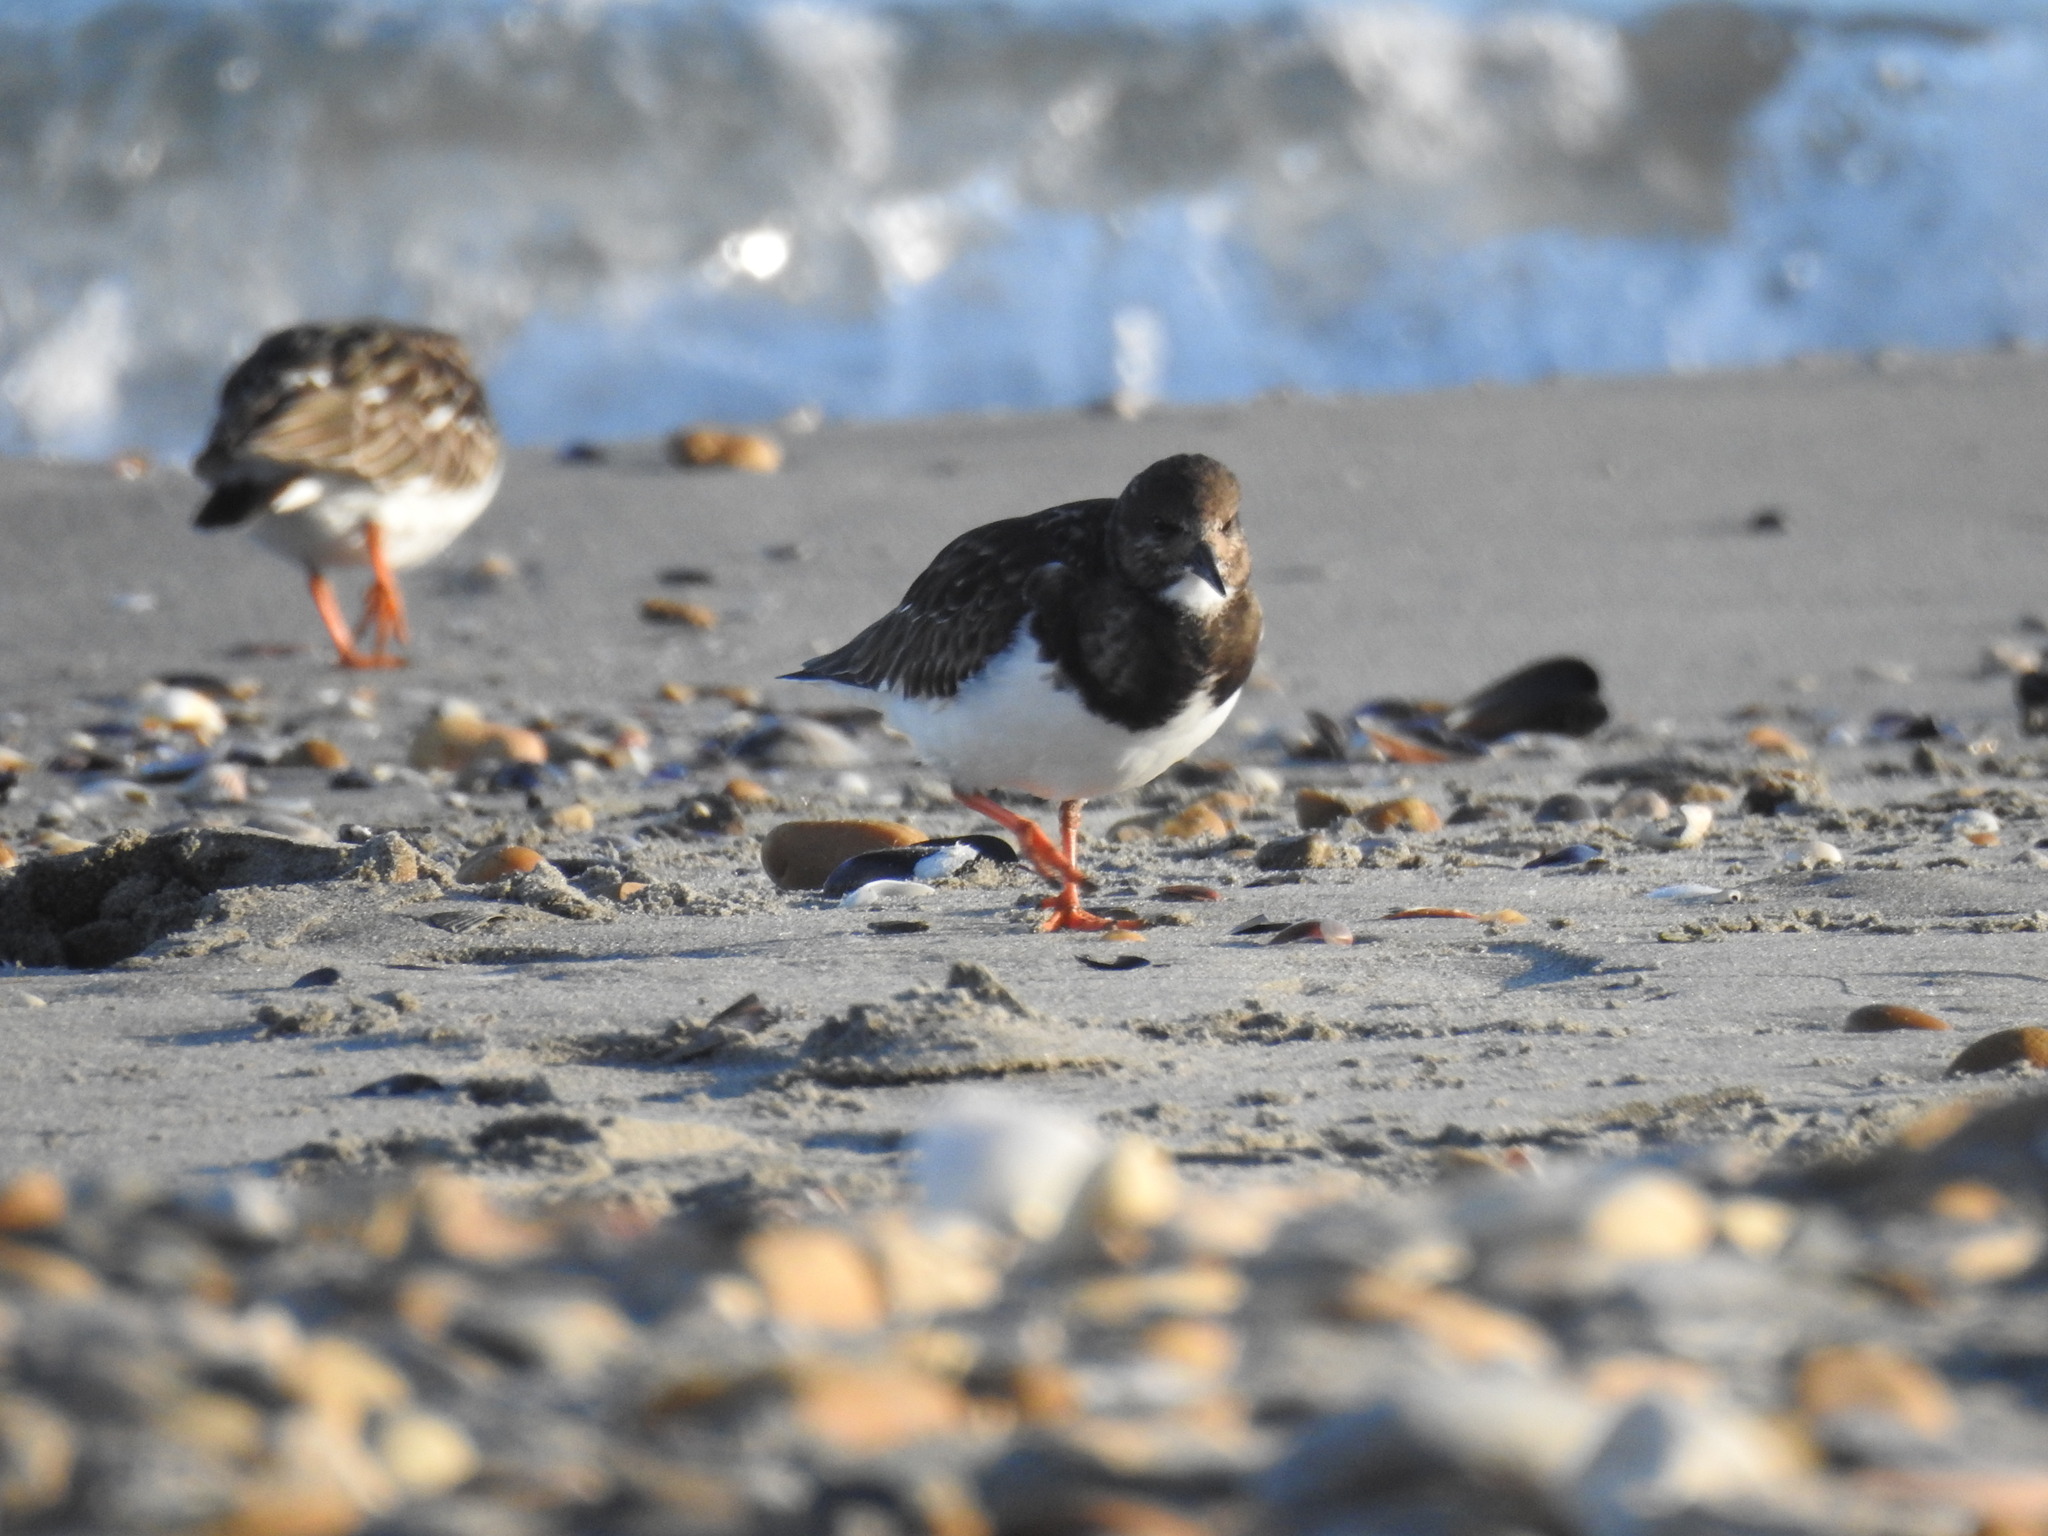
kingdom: Animalia
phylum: Chordata
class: Aves
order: Charadriiformes
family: Scolopacidae
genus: Arenaria
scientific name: Arenaria interpres
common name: Ruddy turnstone
